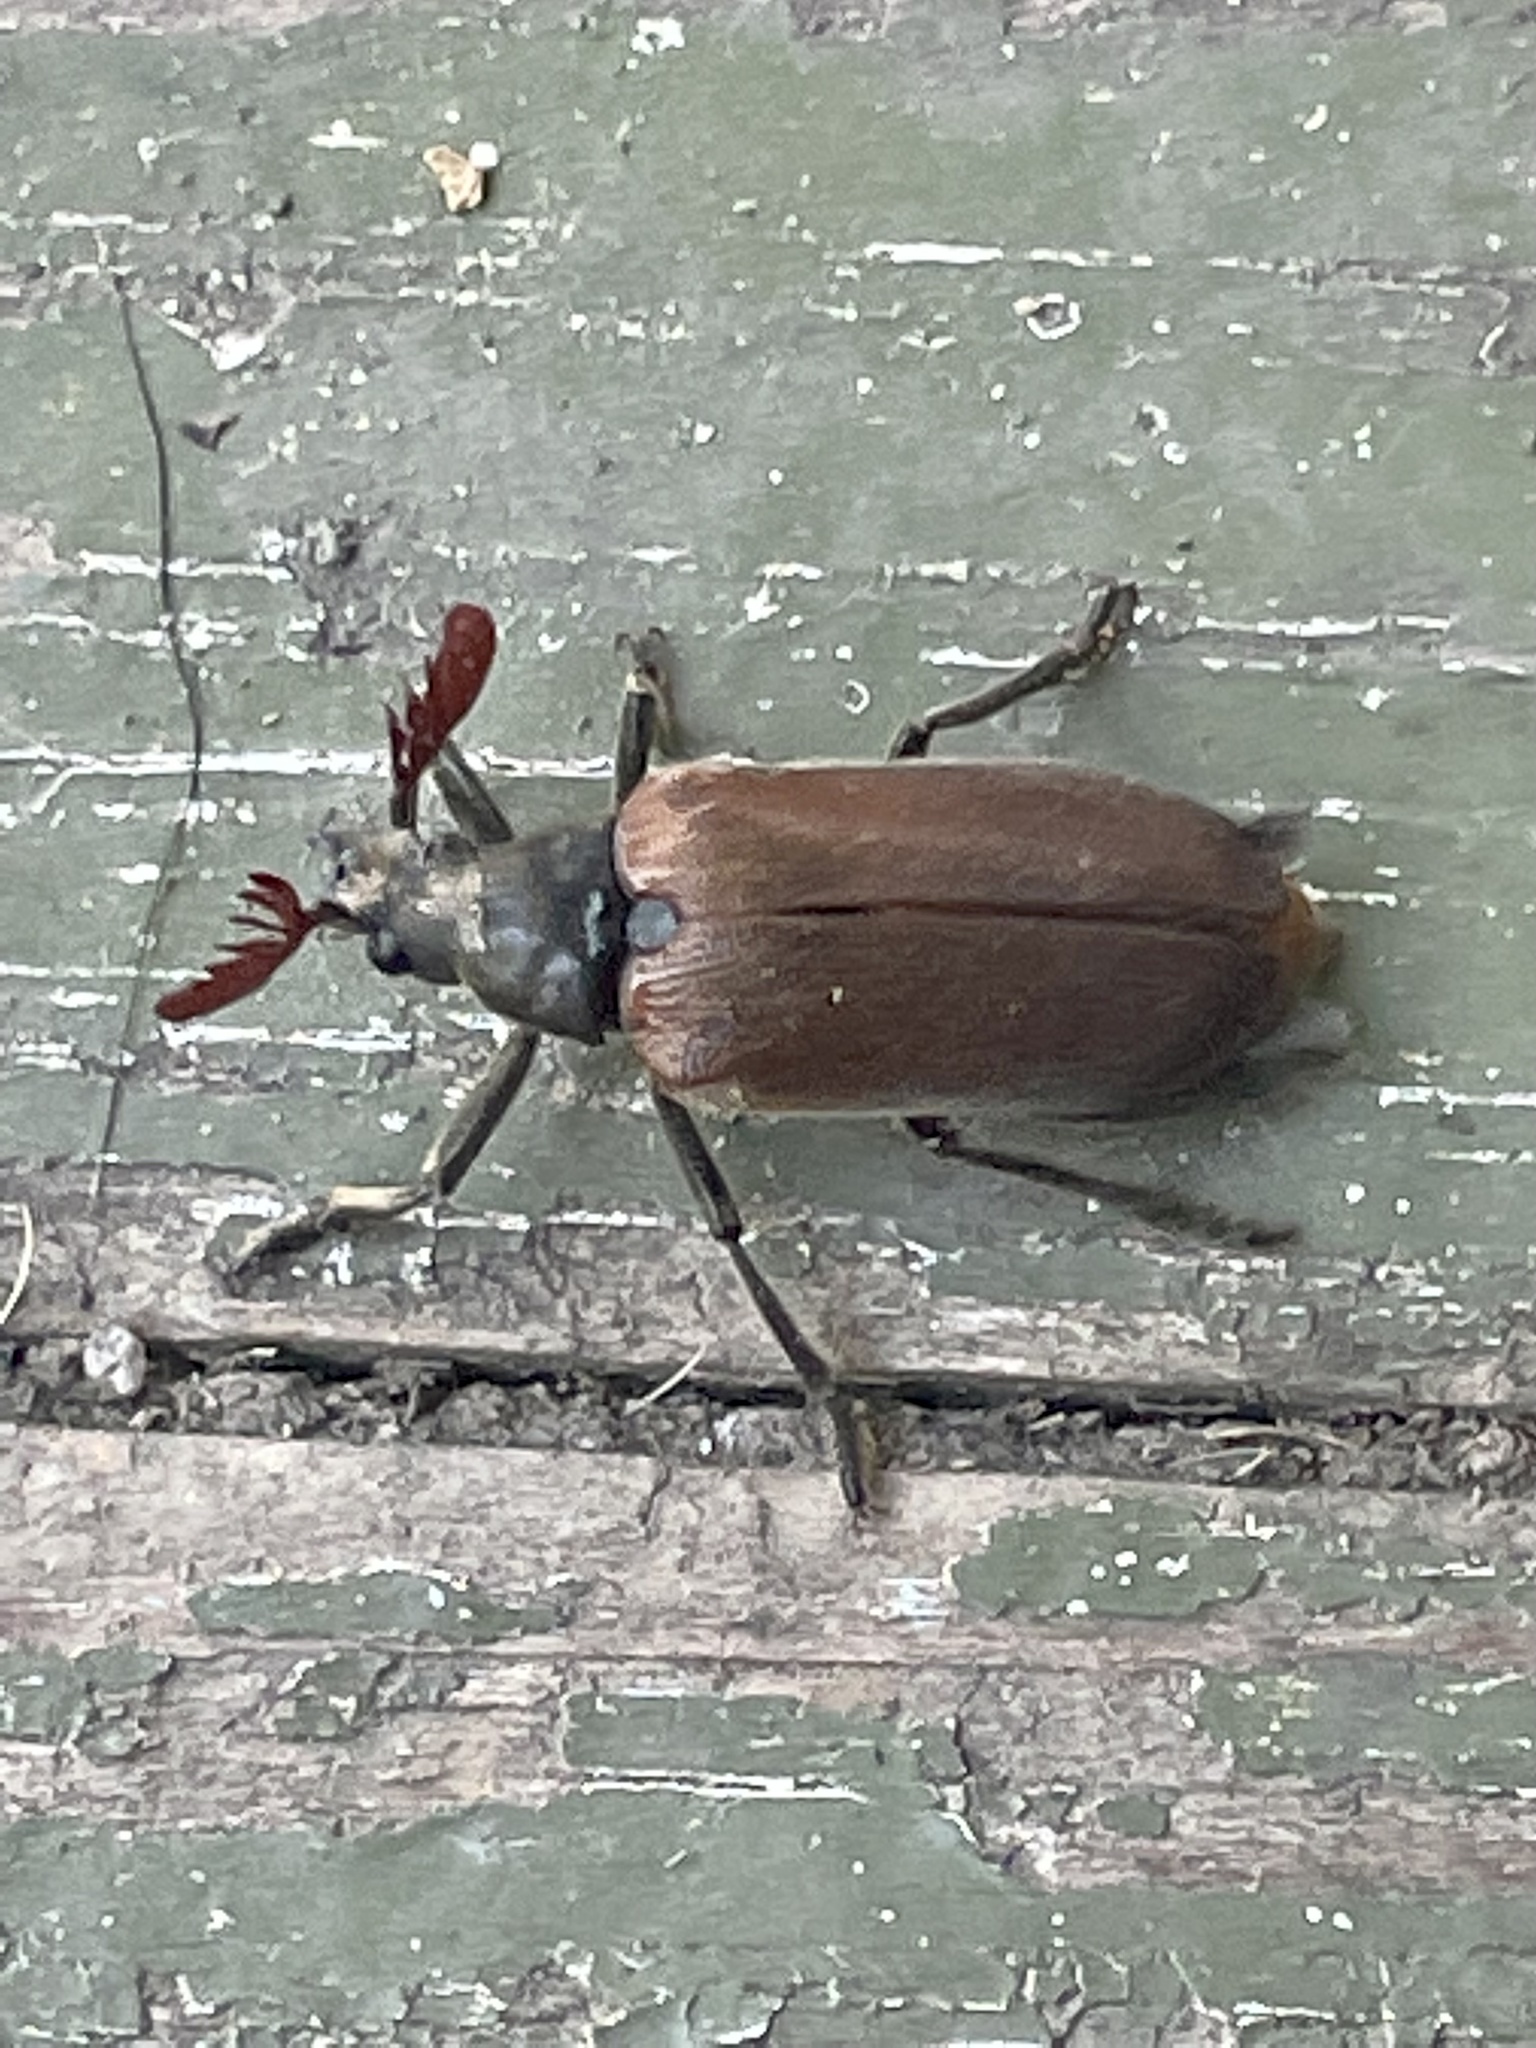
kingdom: Animalia
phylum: Arthropoda
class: Insecta
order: Coleoptera
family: Rhipiceridae
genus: Sandalus
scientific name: Sandalus niger
